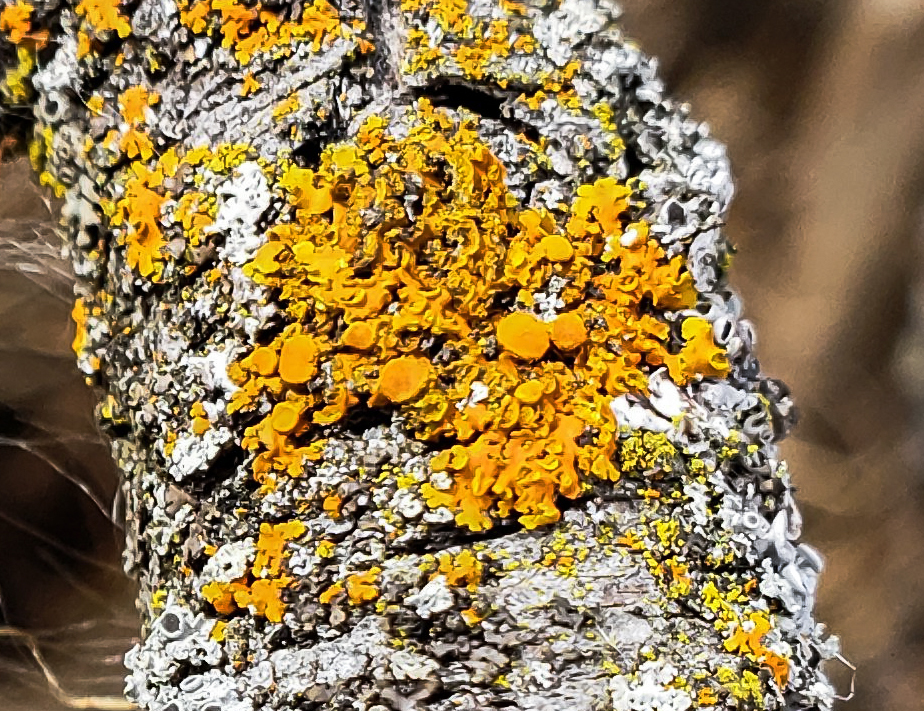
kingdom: Fungi
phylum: Ascomycota
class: Lecanoromycetes
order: Teloschistales
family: Teloschistaceae
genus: Oxneria
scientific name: Oxneria fallax
